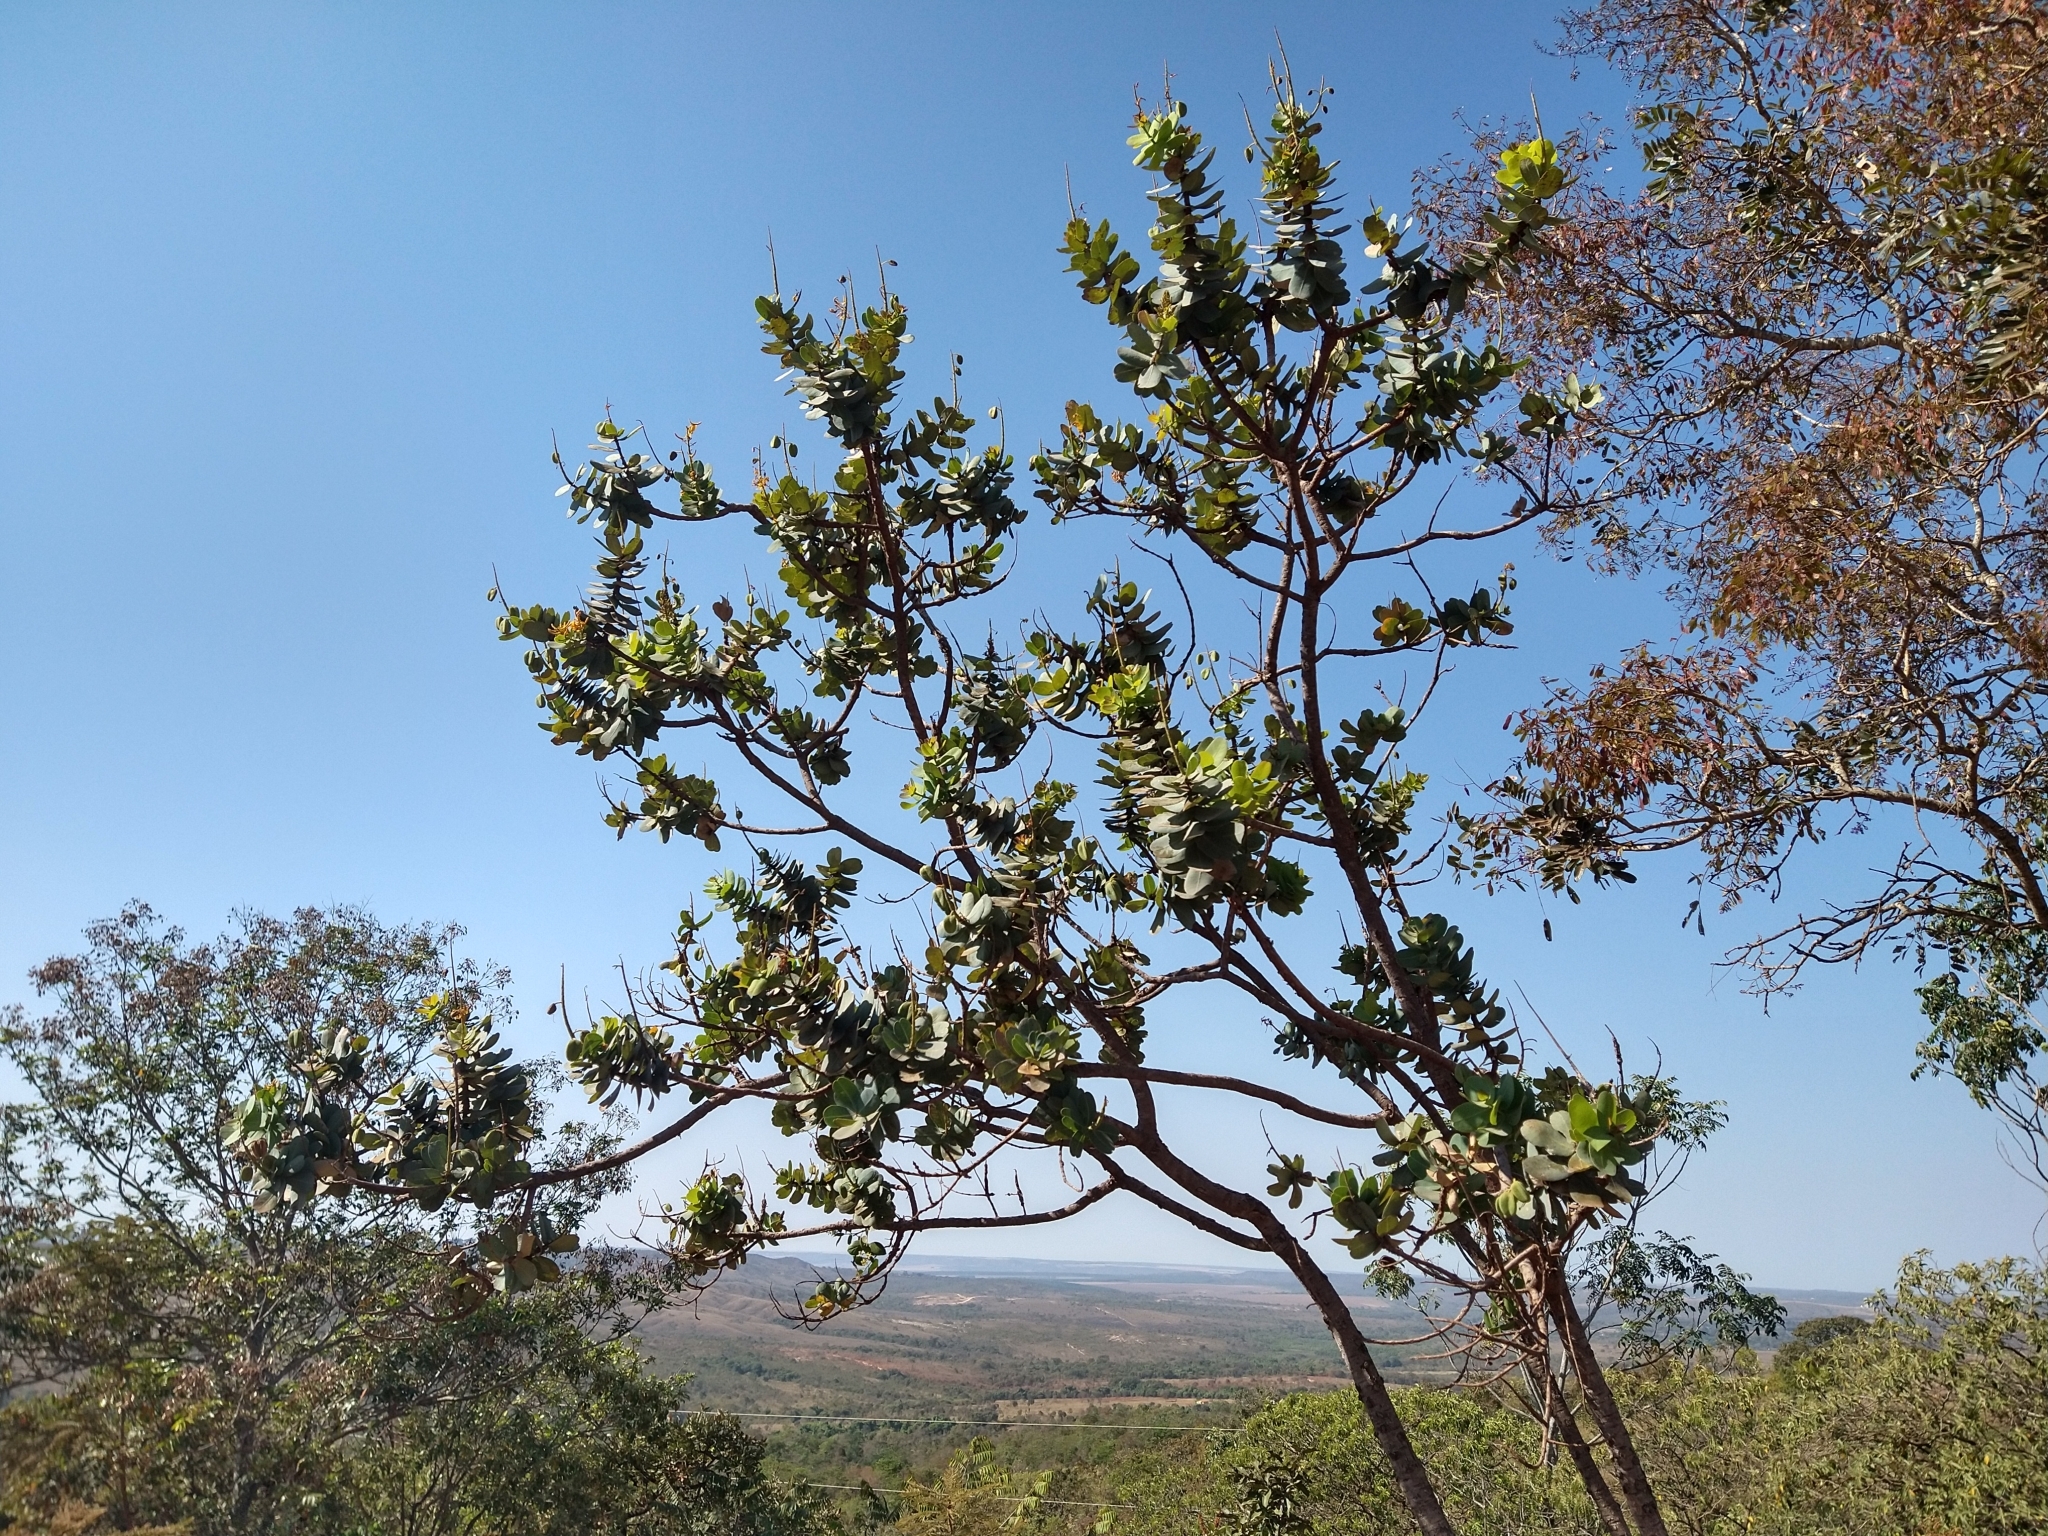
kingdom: Plantae
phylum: Tracheophyta
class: Magnoliopsida
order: Myrtales
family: Vochysiaceae
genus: Vochysia
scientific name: Vochysia elliptica
